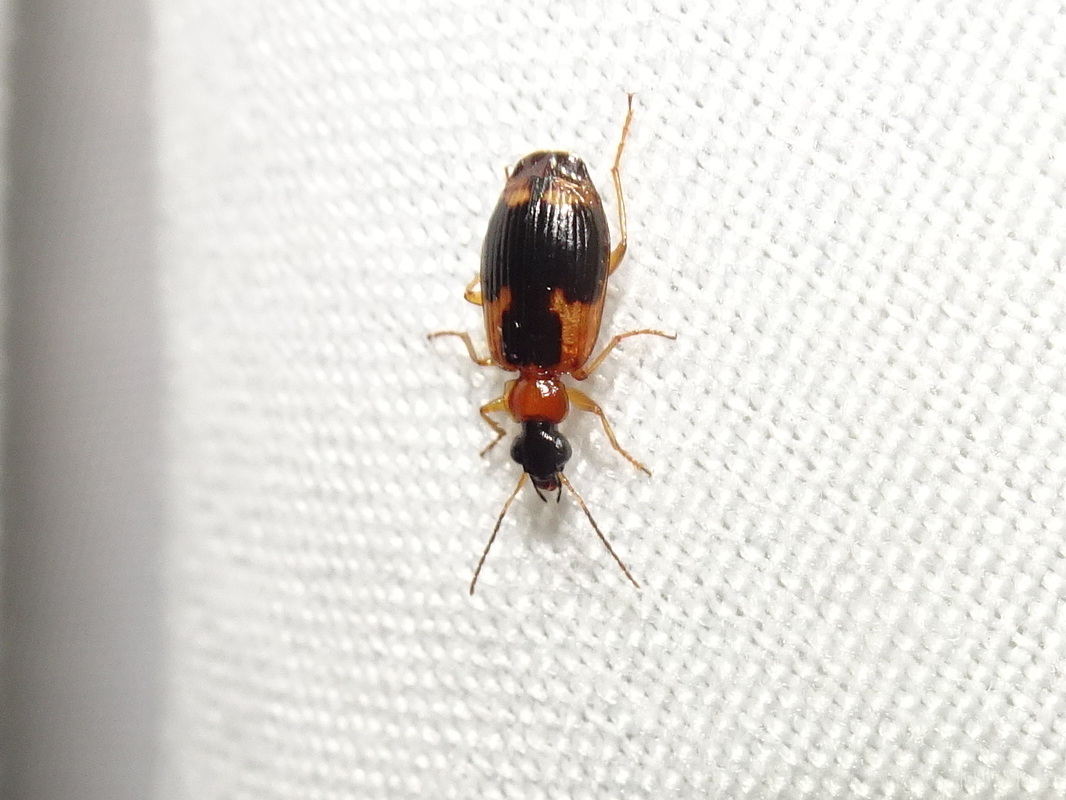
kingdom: Animalia
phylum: Arthropoda
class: Insecta
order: Coleoptera
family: Carabidae
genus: Lebia
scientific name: Lebia analis
